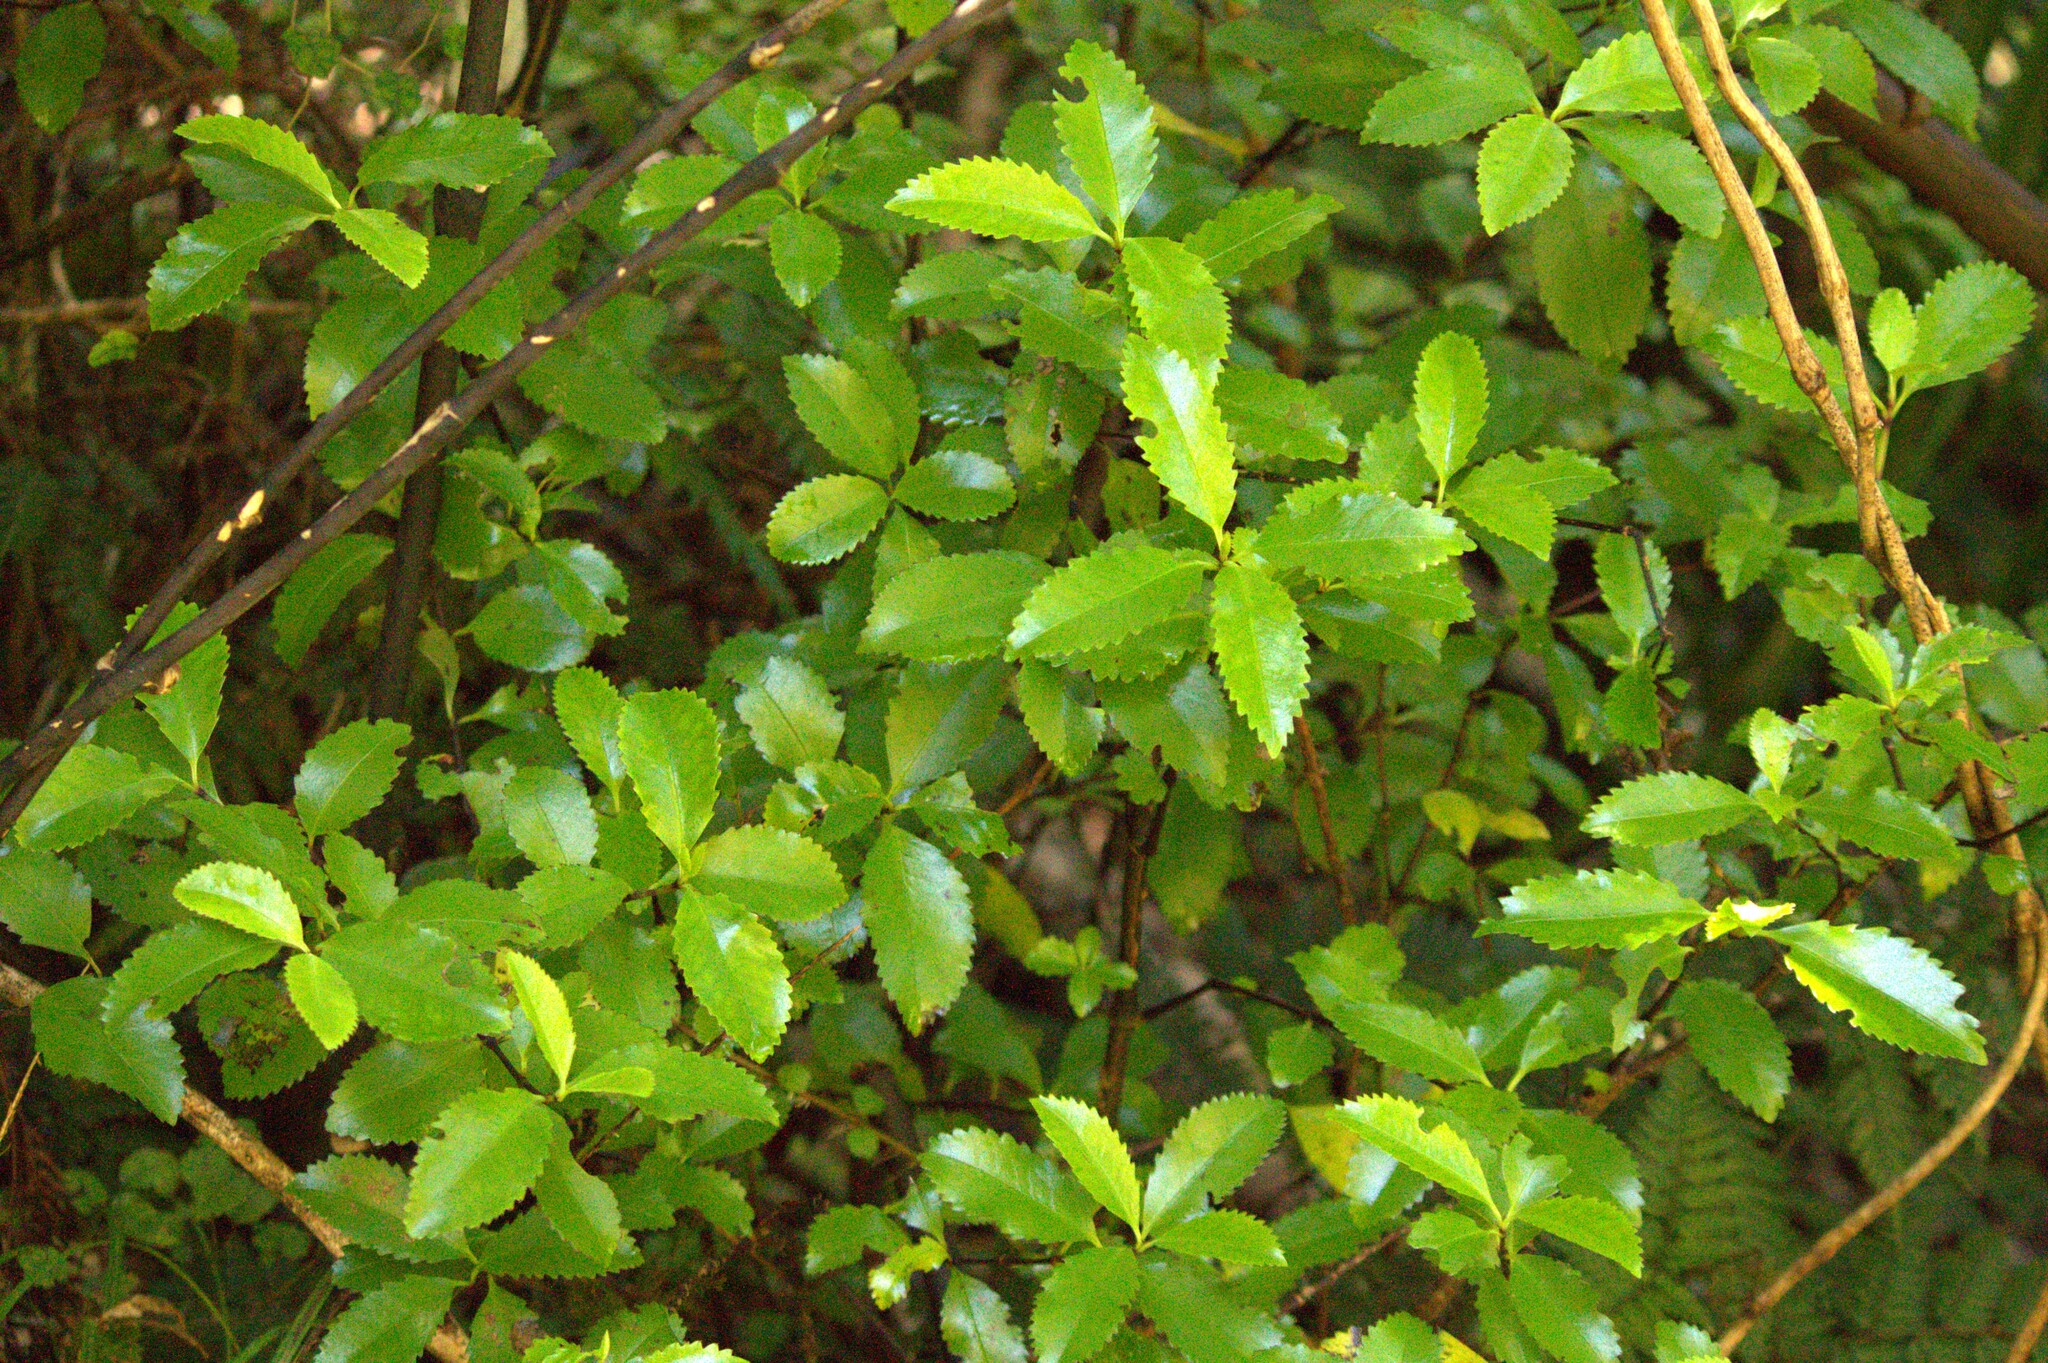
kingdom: Plantae
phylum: Tracheophyta
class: Magnoliopsida
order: Chloranthales
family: Chloranthaceae
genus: Ascarina
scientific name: Ascarina lucida
